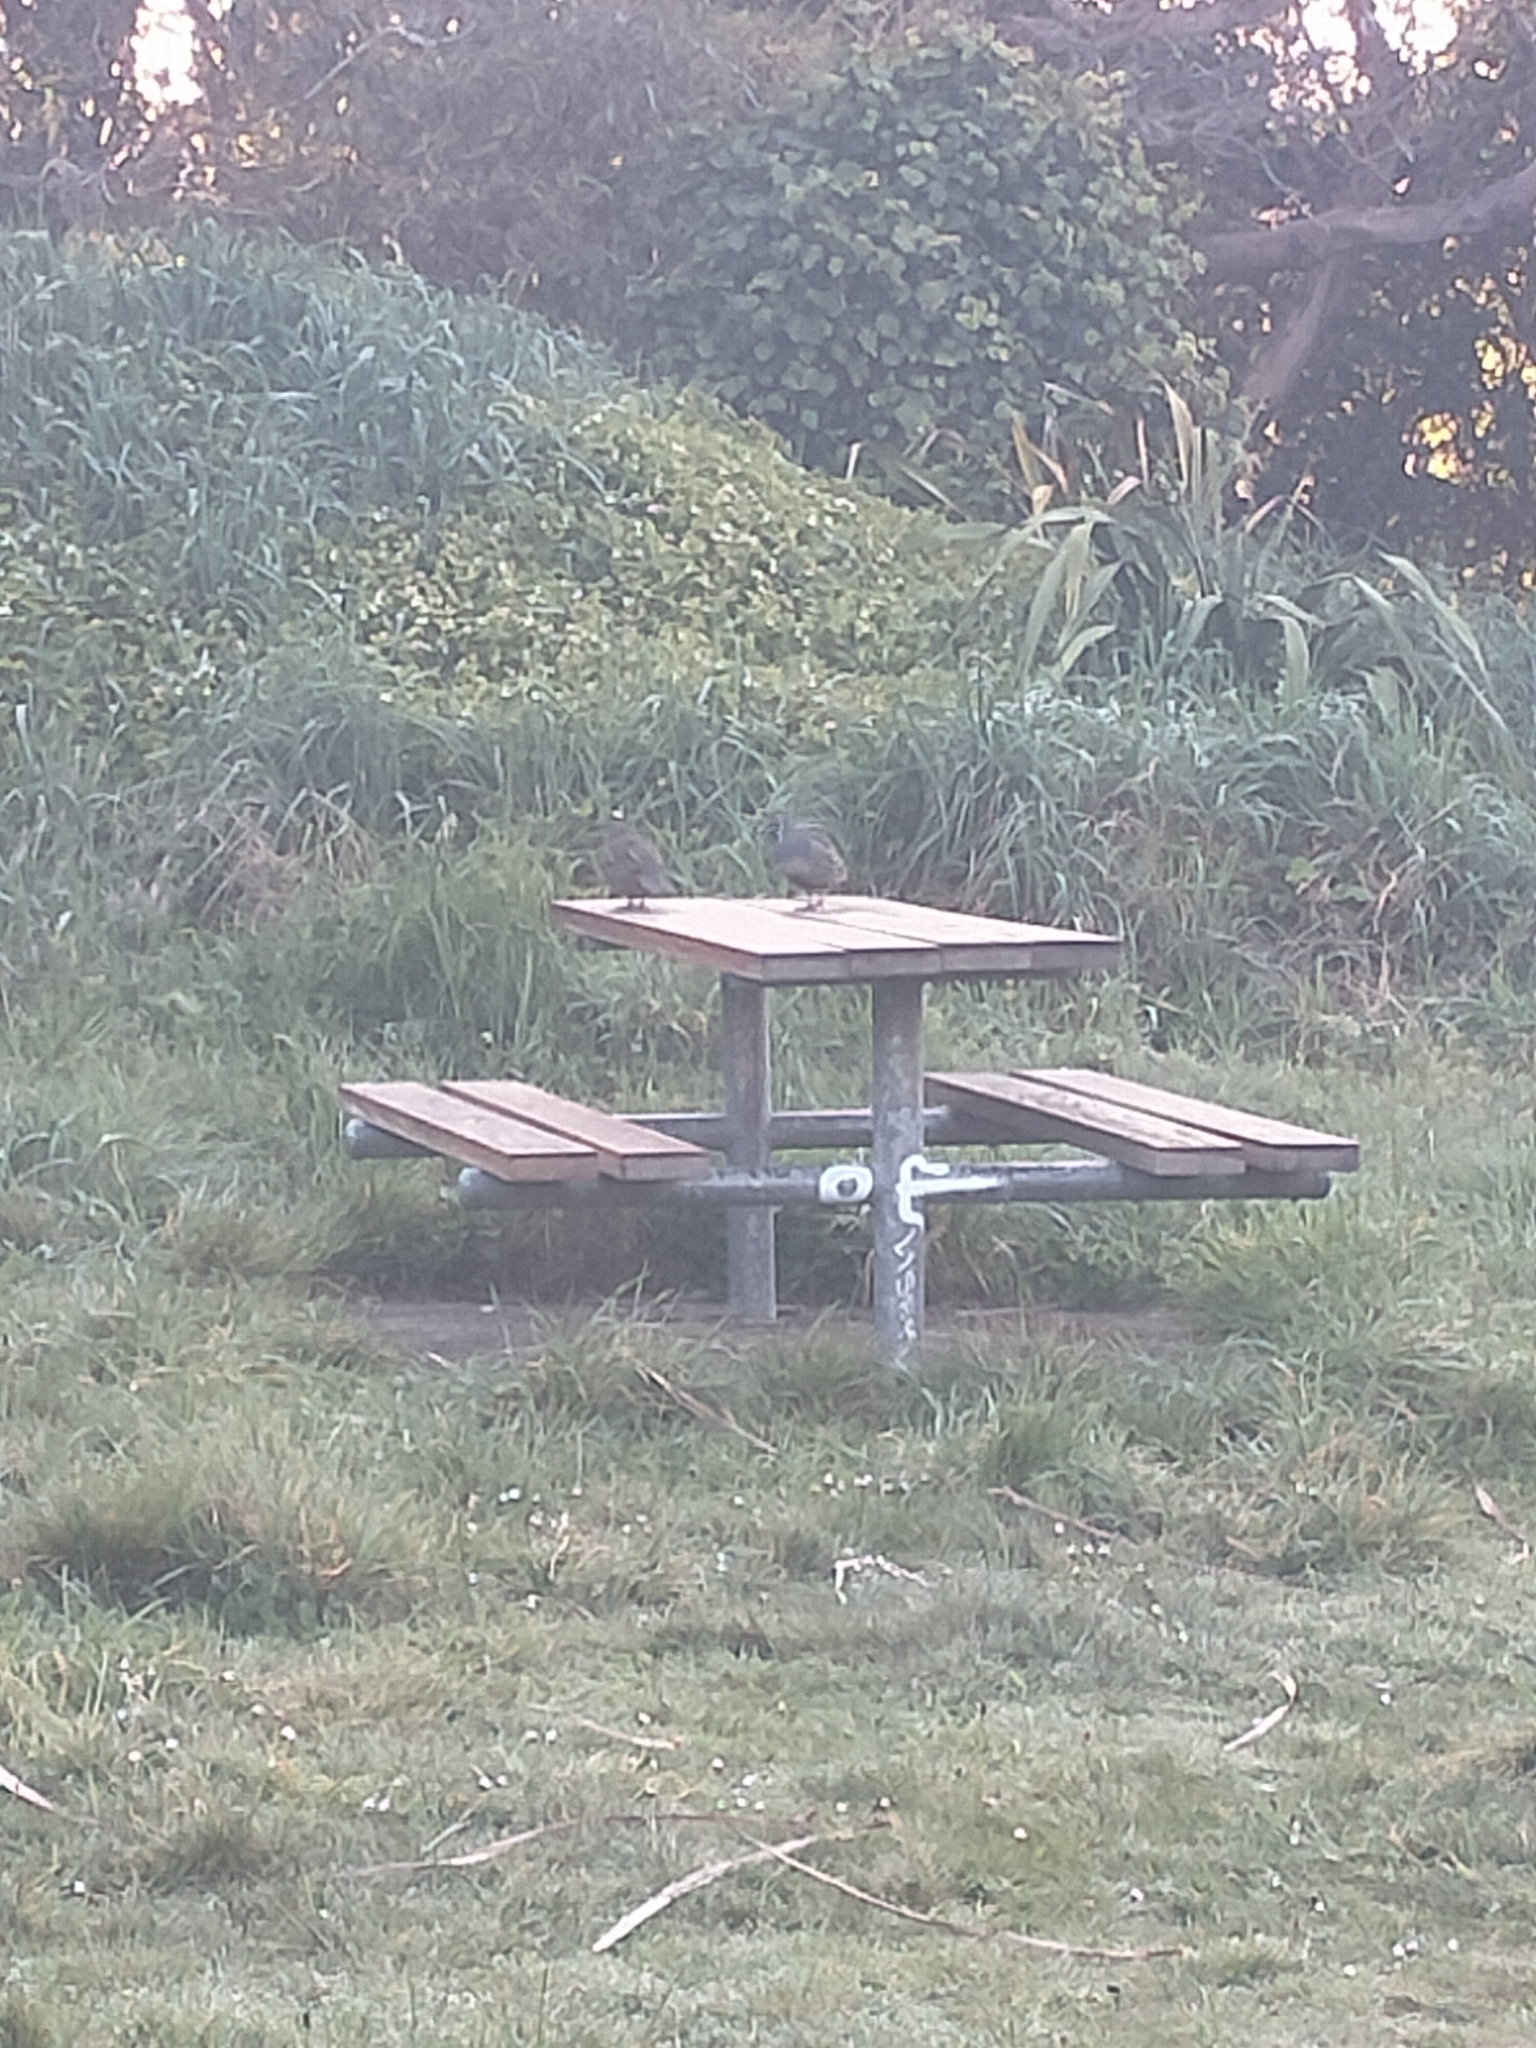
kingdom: Animalia
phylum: Chordata
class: Aves
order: Galliformes
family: Odontophoridae
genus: Callipepla
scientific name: Callipepla californica
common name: California quail
